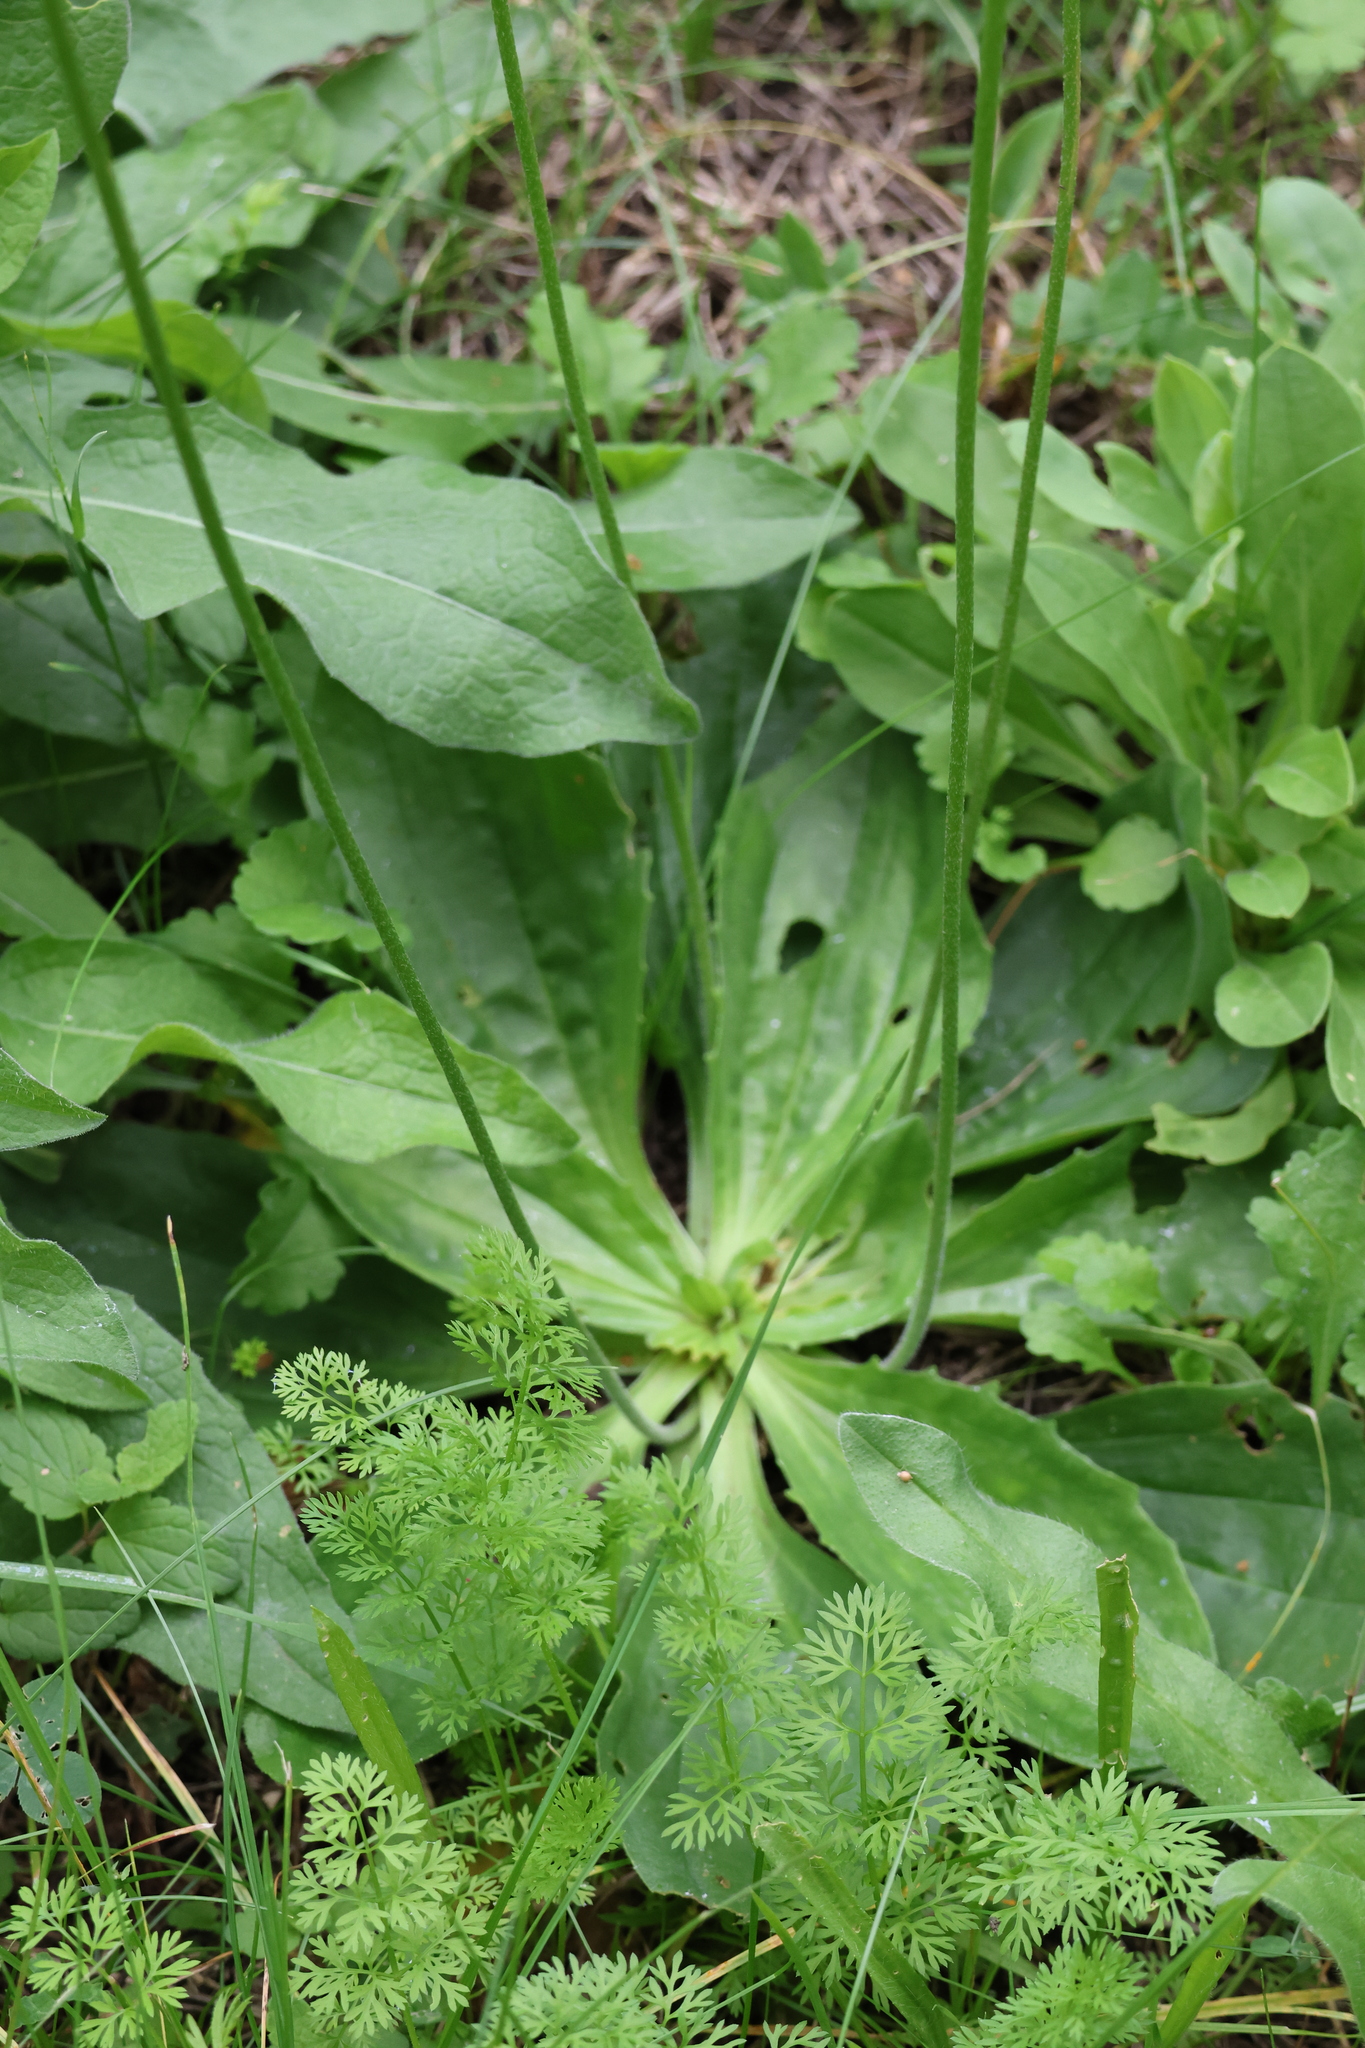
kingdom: Plantae
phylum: Tracheophyta
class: Magnoliopsida
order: Lamiales
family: Plantaginaceae
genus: Plantago
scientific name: Plantago media
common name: Hoary plantain
